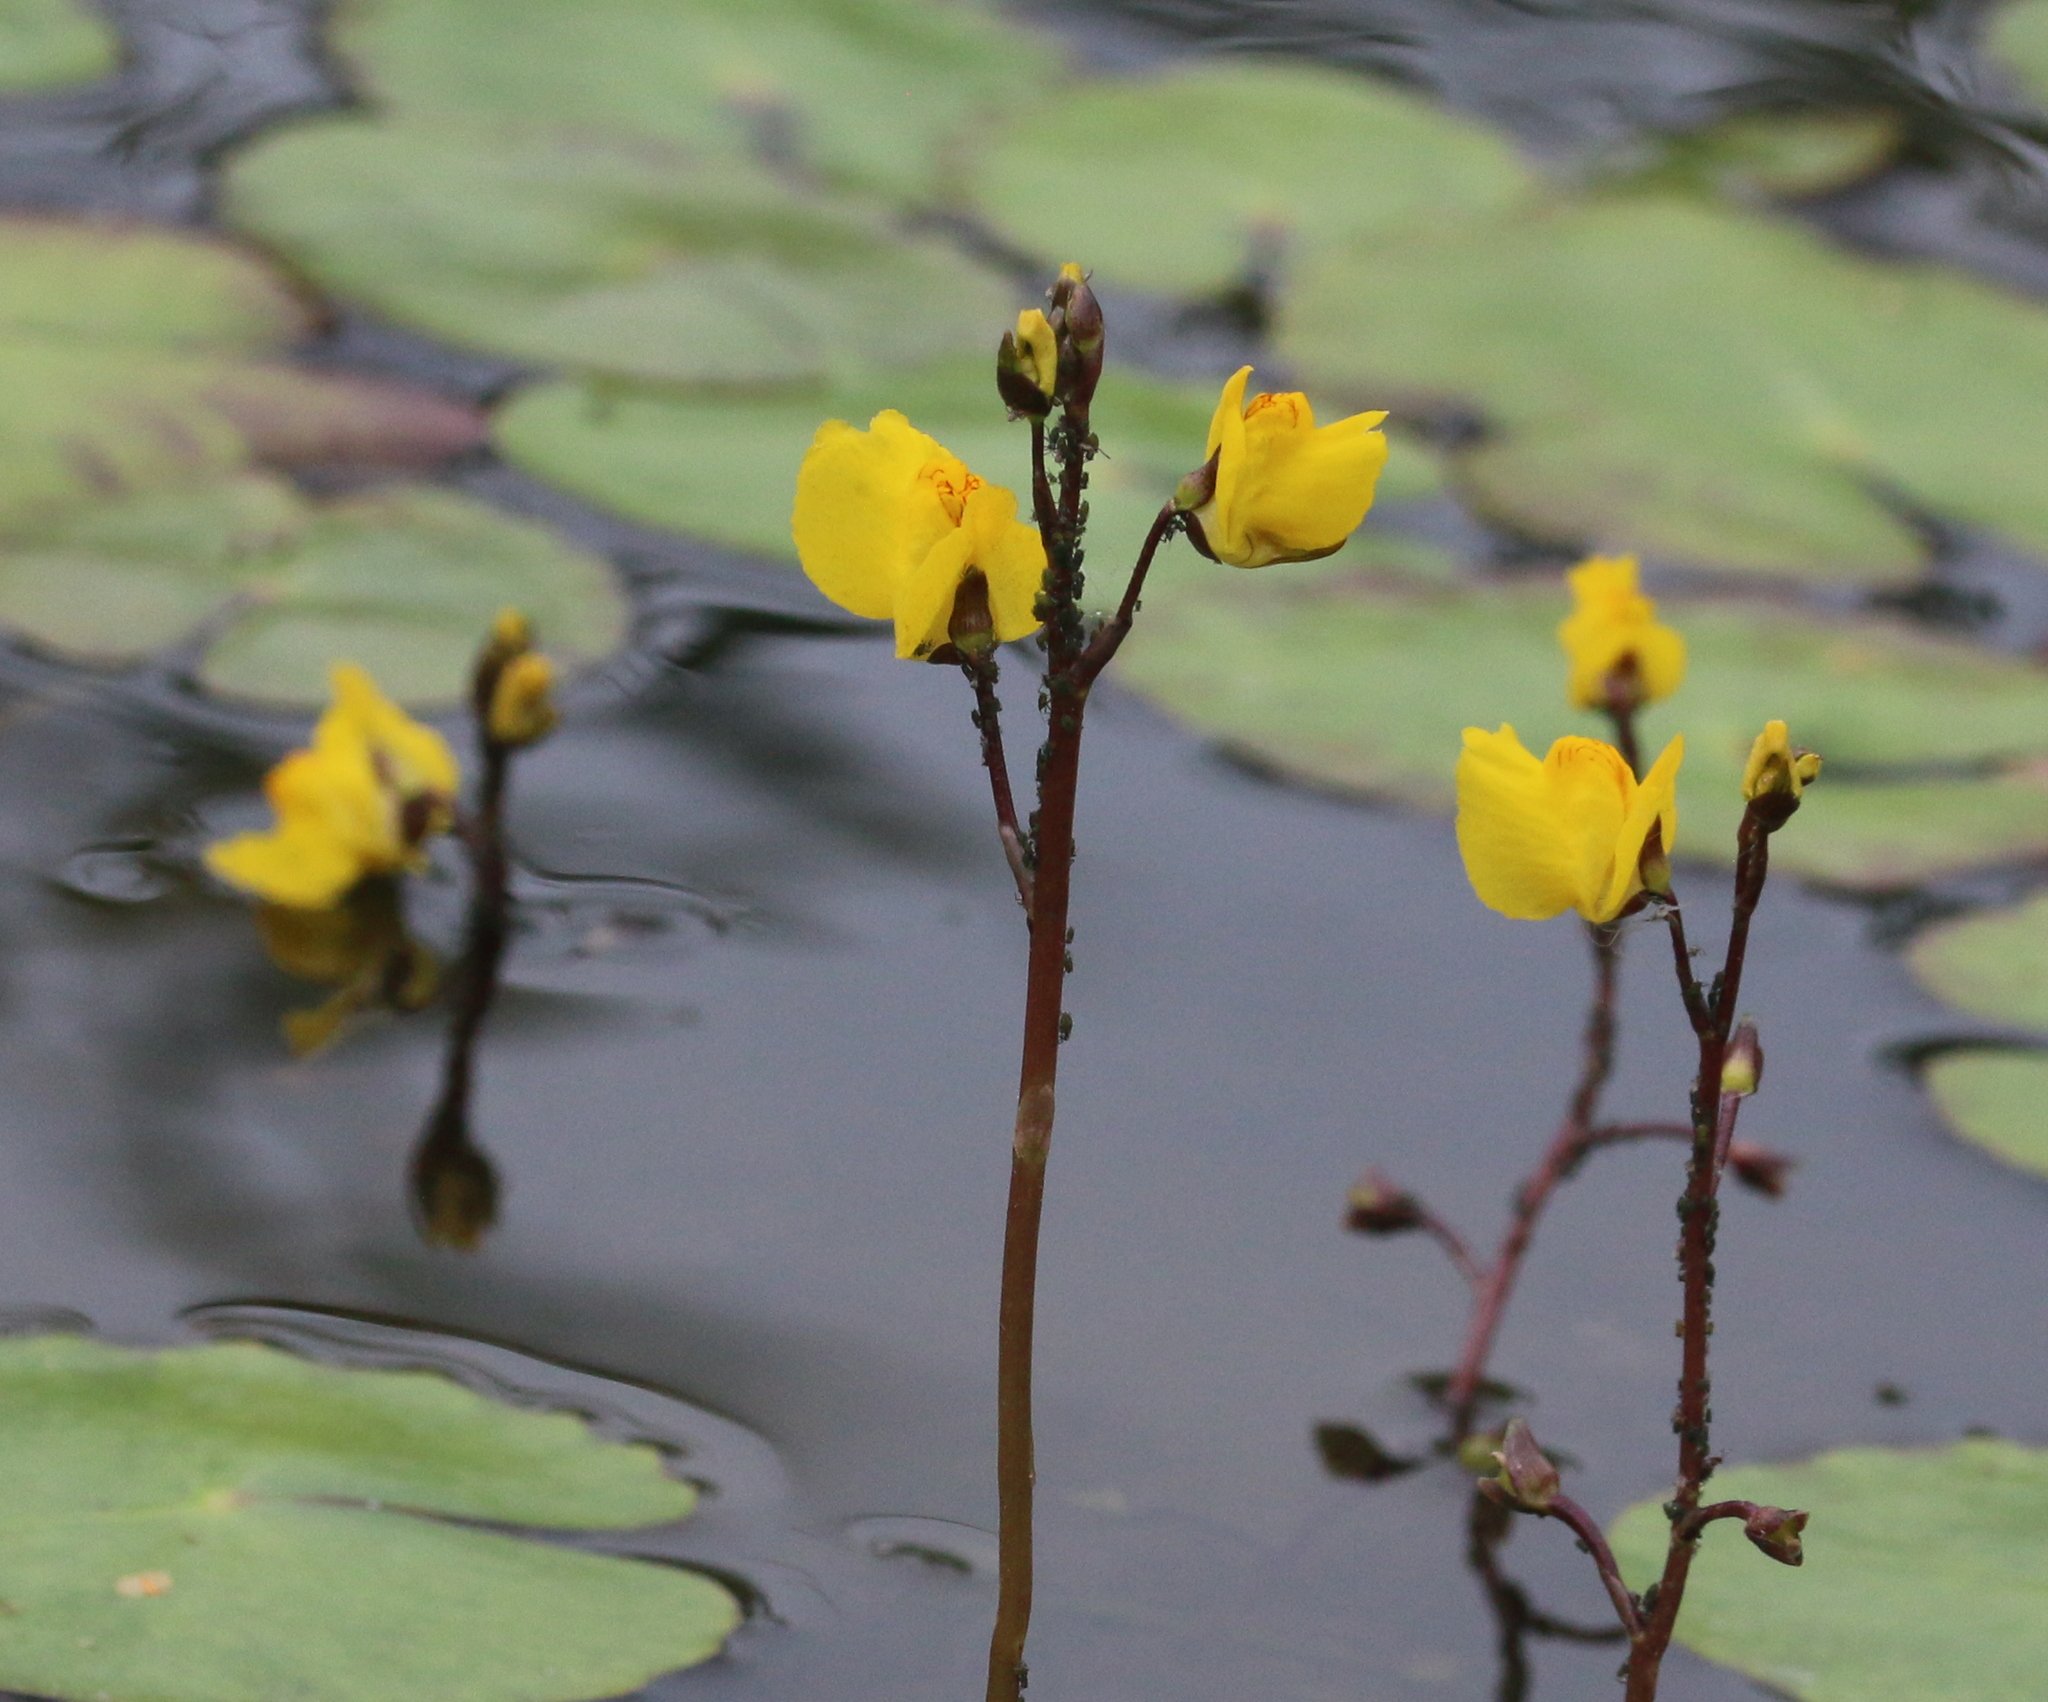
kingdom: Plantae
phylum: Tracheophyta
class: Magnoliopsida
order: Lamiales
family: Lentibulariaceae
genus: Utricularia
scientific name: Utricularia vulgaris
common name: Greater bladderwort
